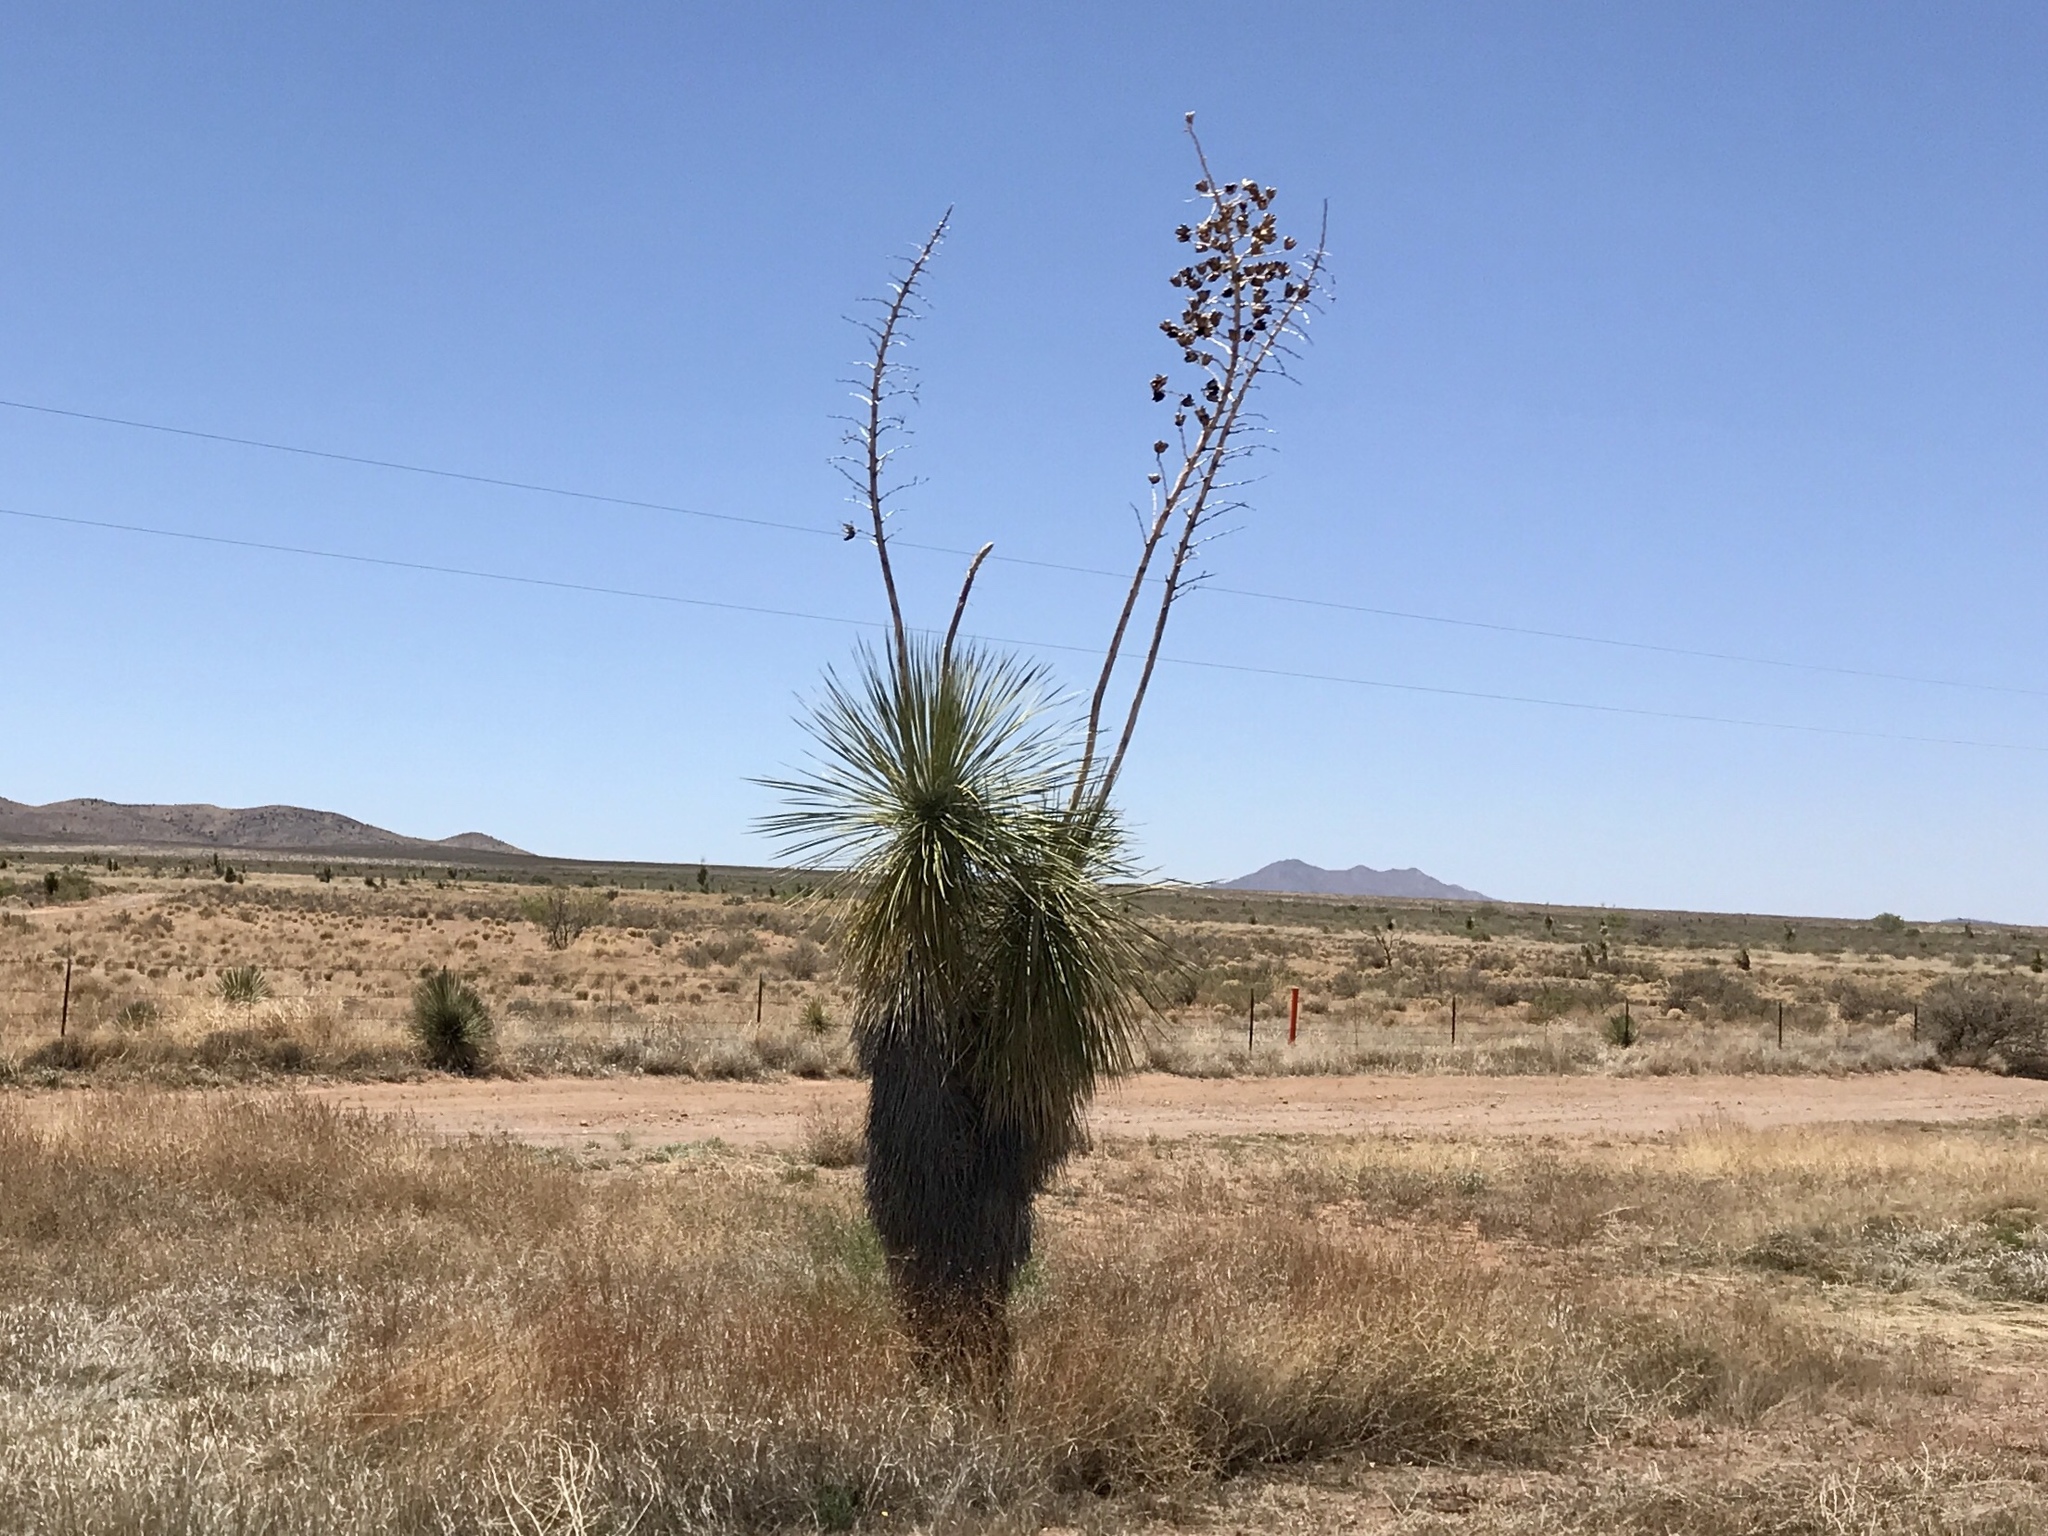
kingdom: Plantae
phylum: Tracheophyta
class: Liliopsida
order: Asparagales
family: Asparagaceae
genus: Yucca
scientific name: Yucca elata
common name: Palmella
